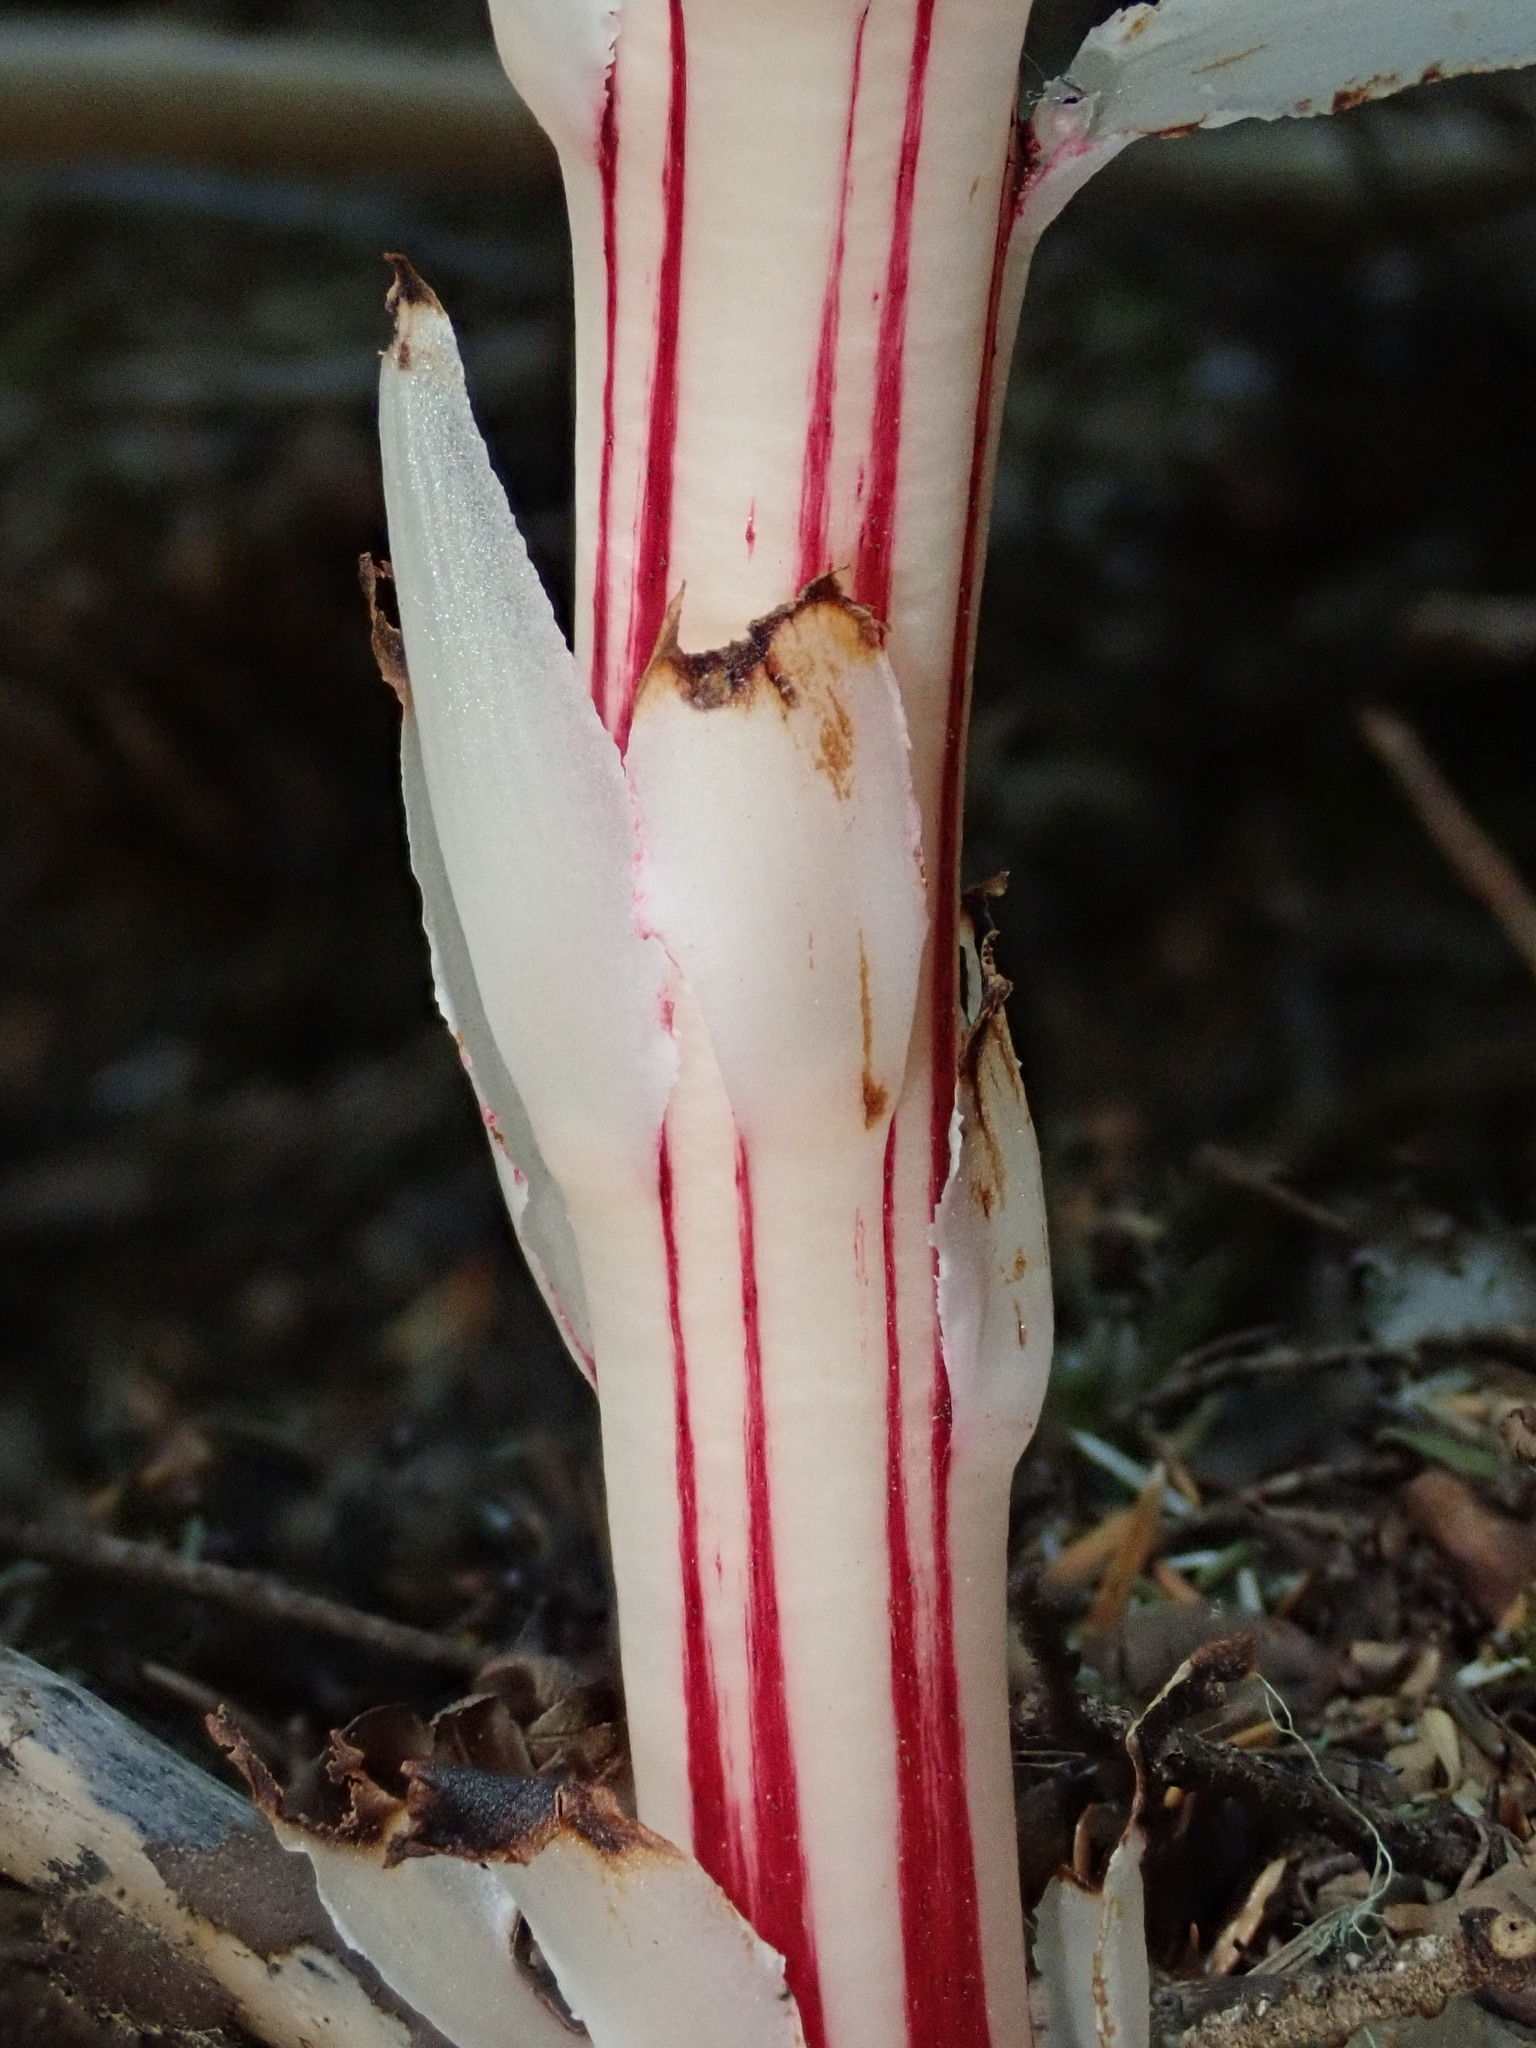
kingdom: Plantae
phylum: Tracheophyta
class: Magnoliopsida
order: Ericales
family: Ericaceae
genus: Allotropa
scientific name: Allotropa virgata
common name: Candy-striped allotropa
